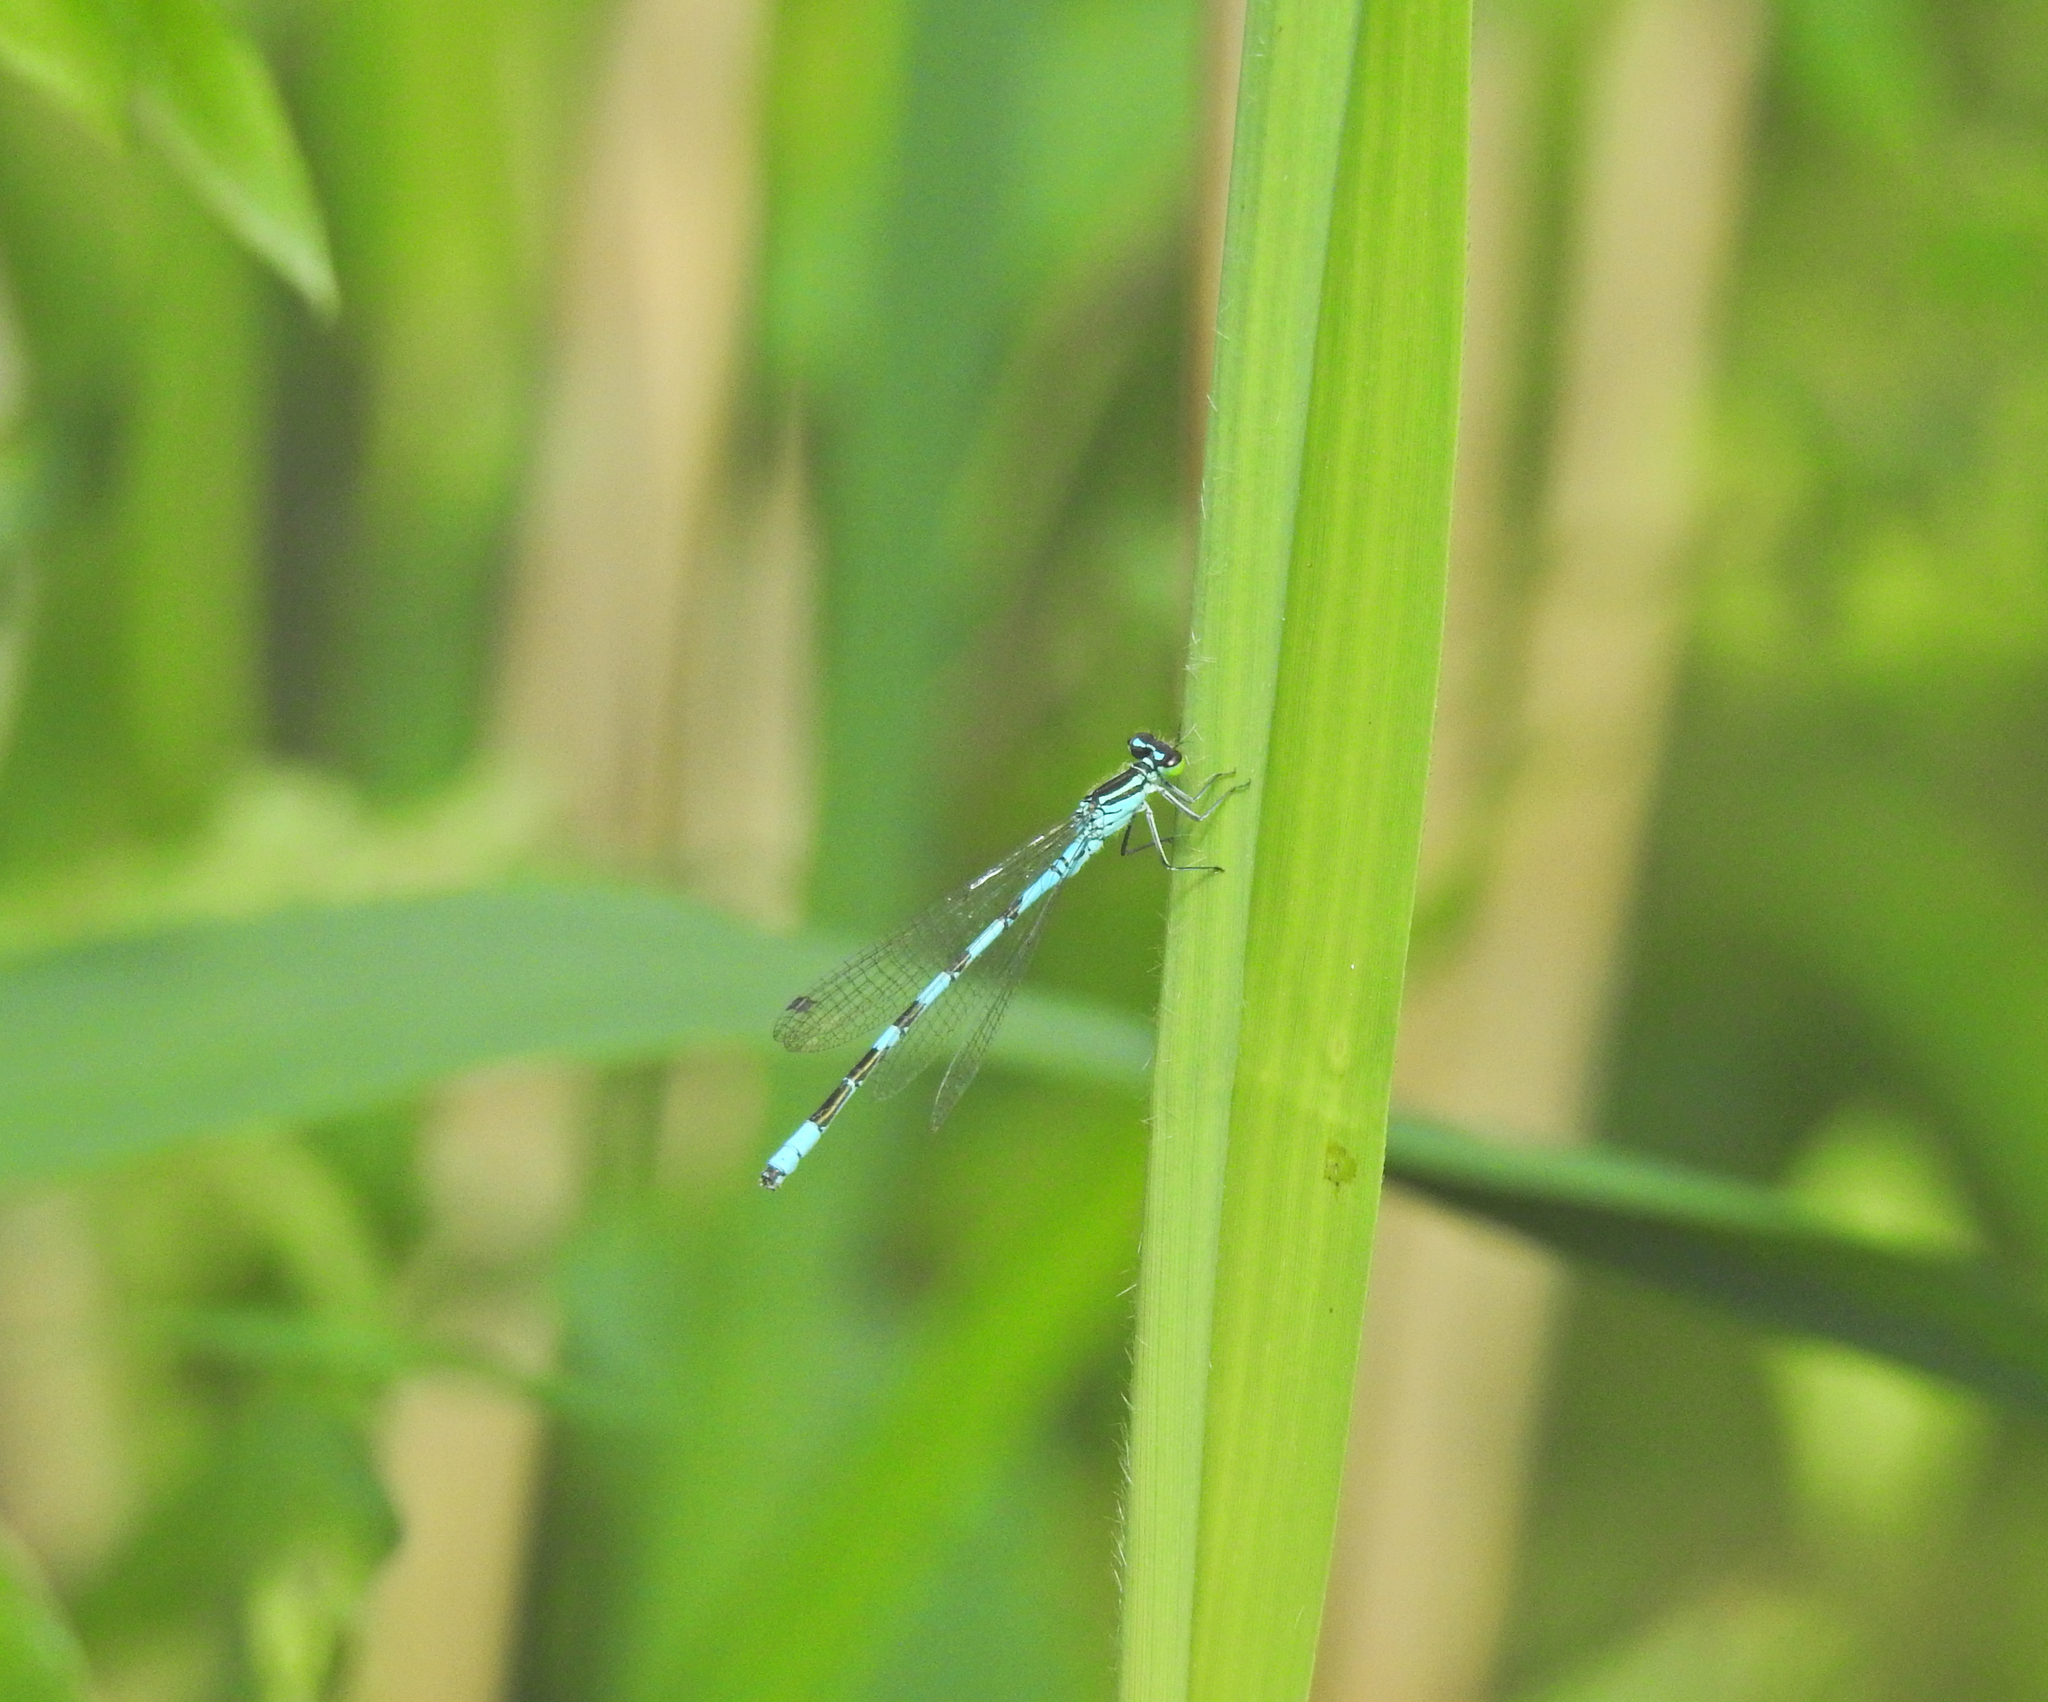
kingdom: Animalia
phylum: Arthropoda
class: Insecta
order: Odonata
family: Coenagrionidae
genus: Coenagrion
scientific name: Coenagrion hastulatum
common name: Spearhead bluet
